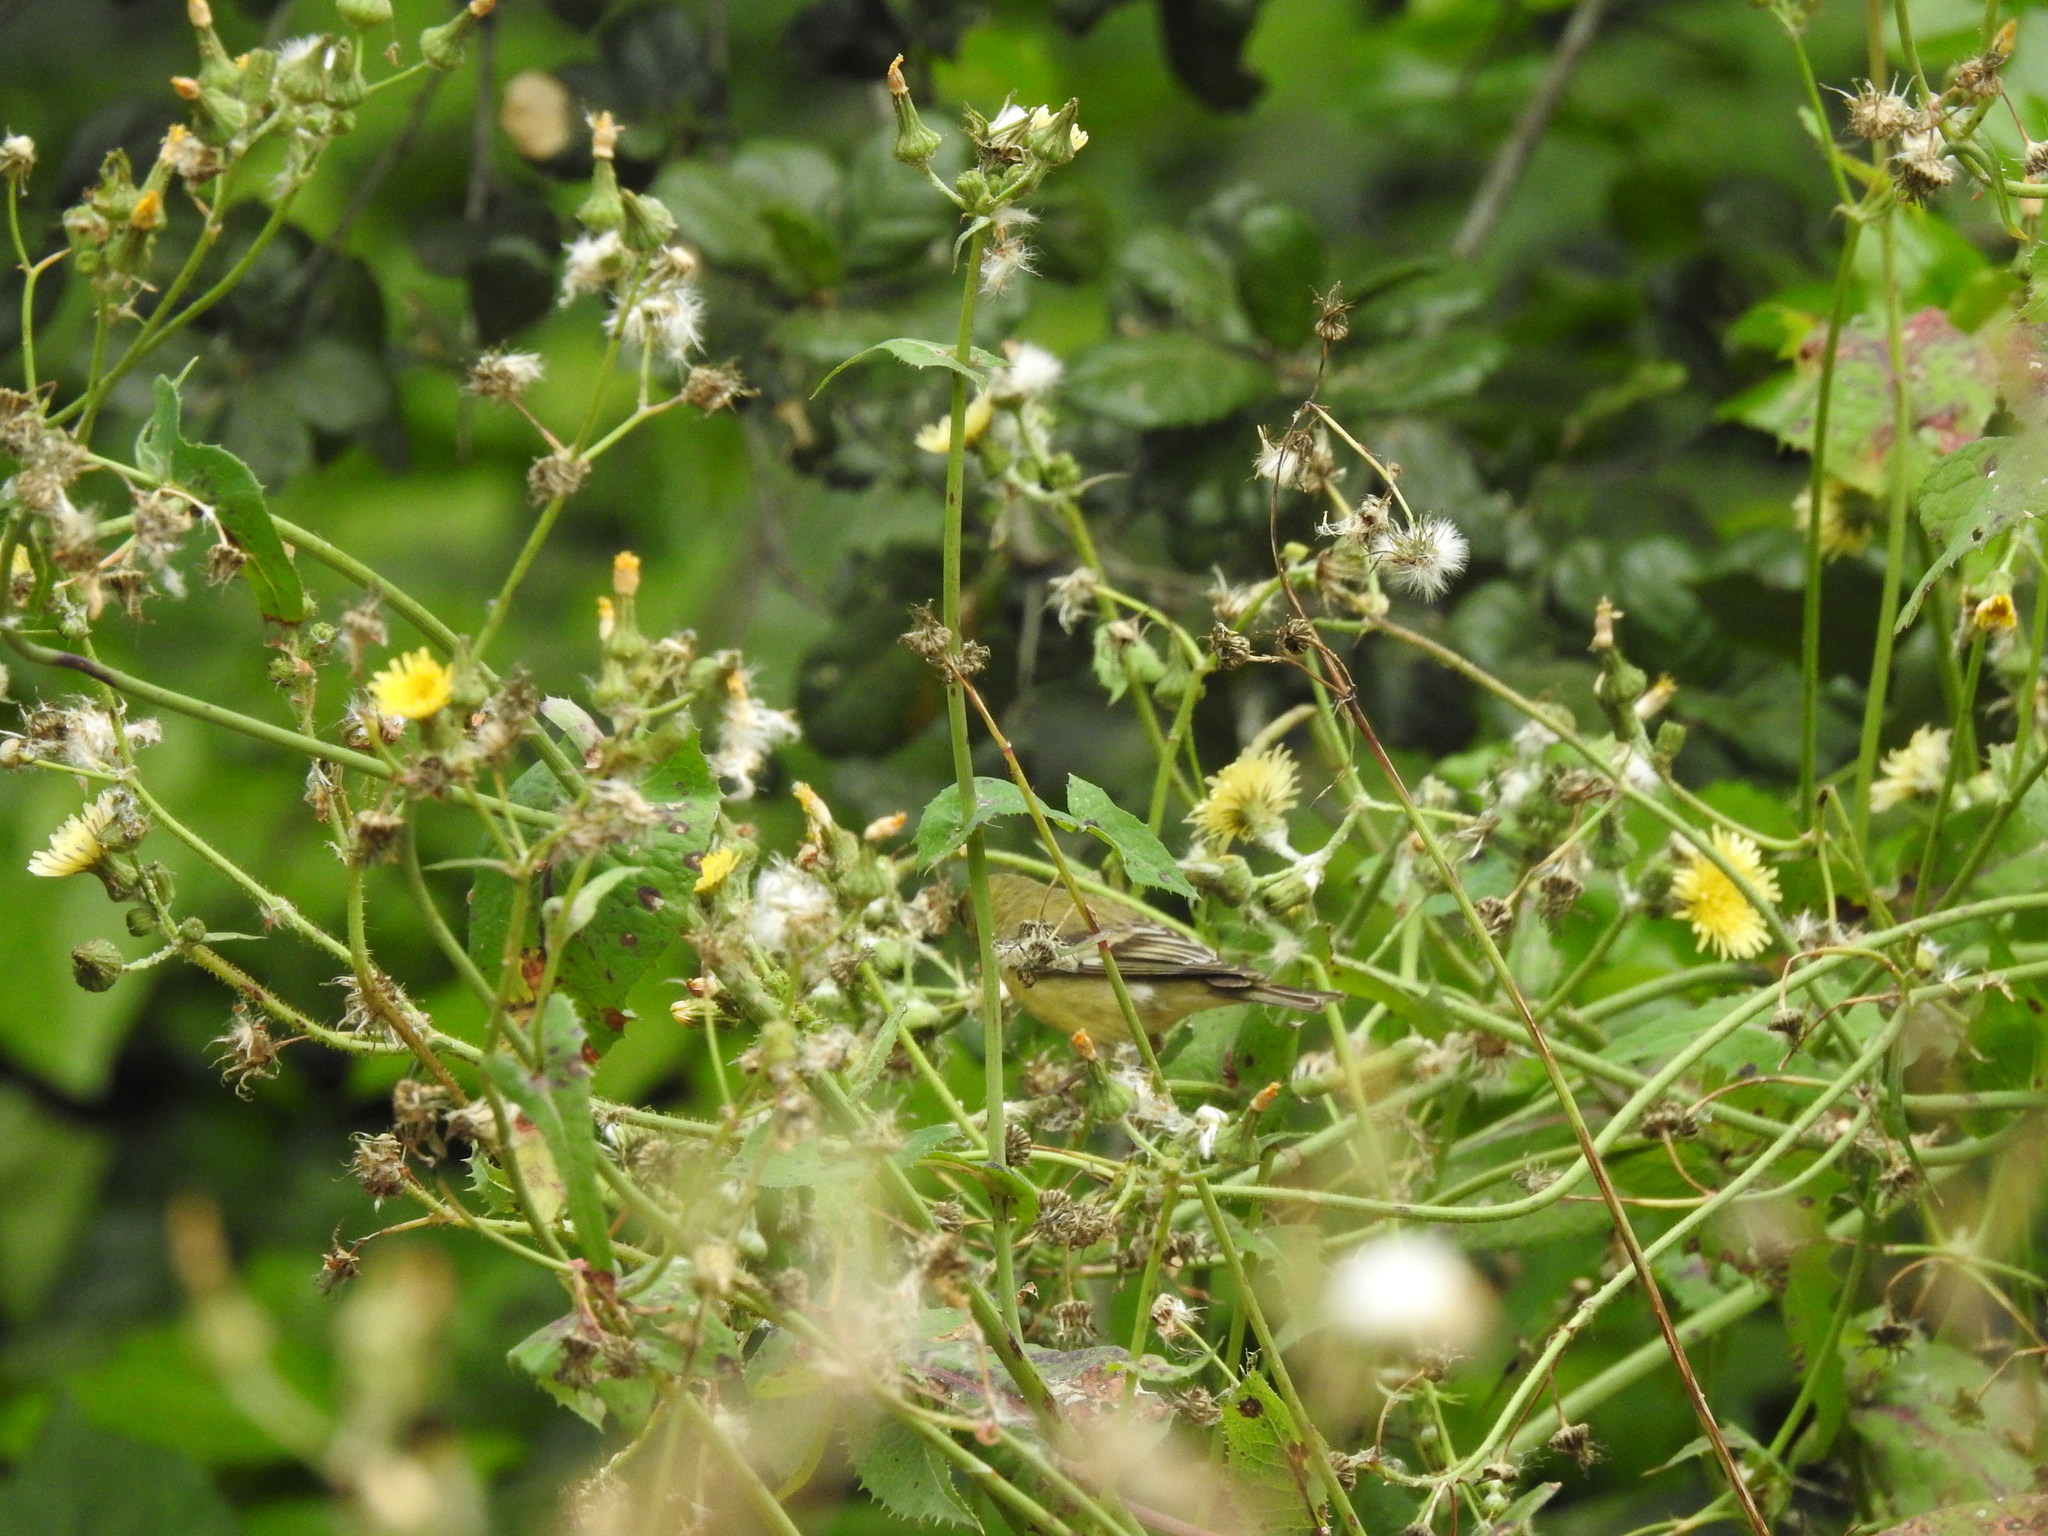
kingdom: Animalia
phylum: Chordata
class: Aves
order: Passeriformes
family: Fringillidae
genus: Spinus
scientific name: Spinus psaltria
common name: Lesser goldfinch
